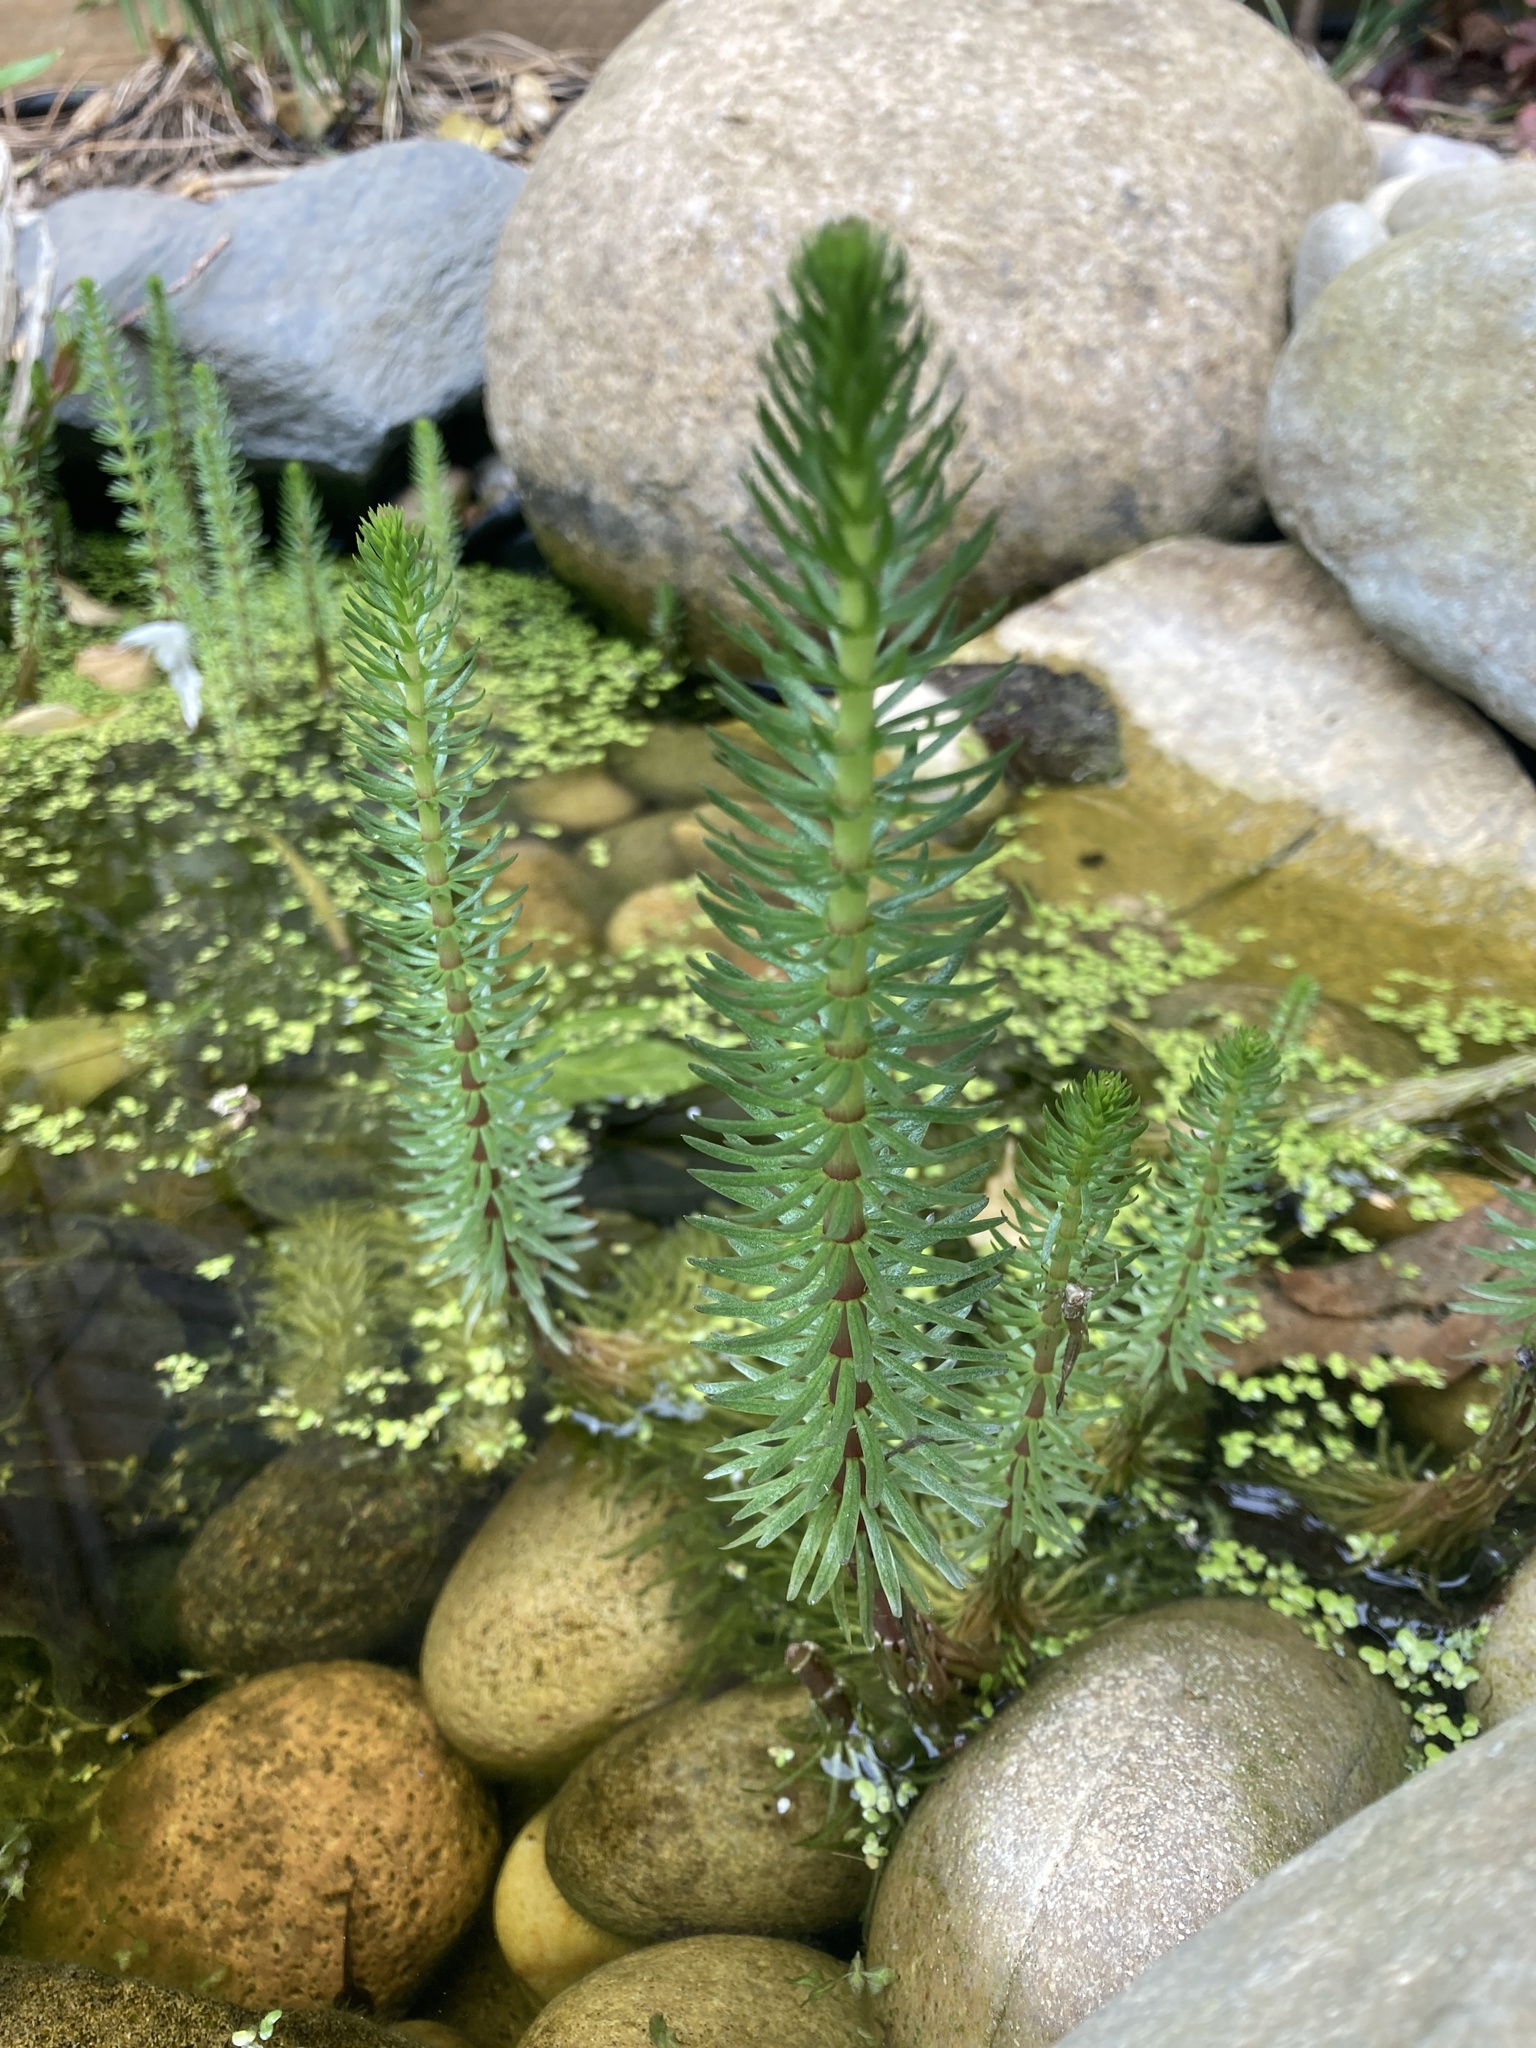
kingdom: Plantae
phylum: Tracheophyta
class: Magnoliopsida
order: Lamiales
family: Plantaginaceae
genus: Hippuris
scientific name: Hippuris vulgaris
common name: Mare's-tail
